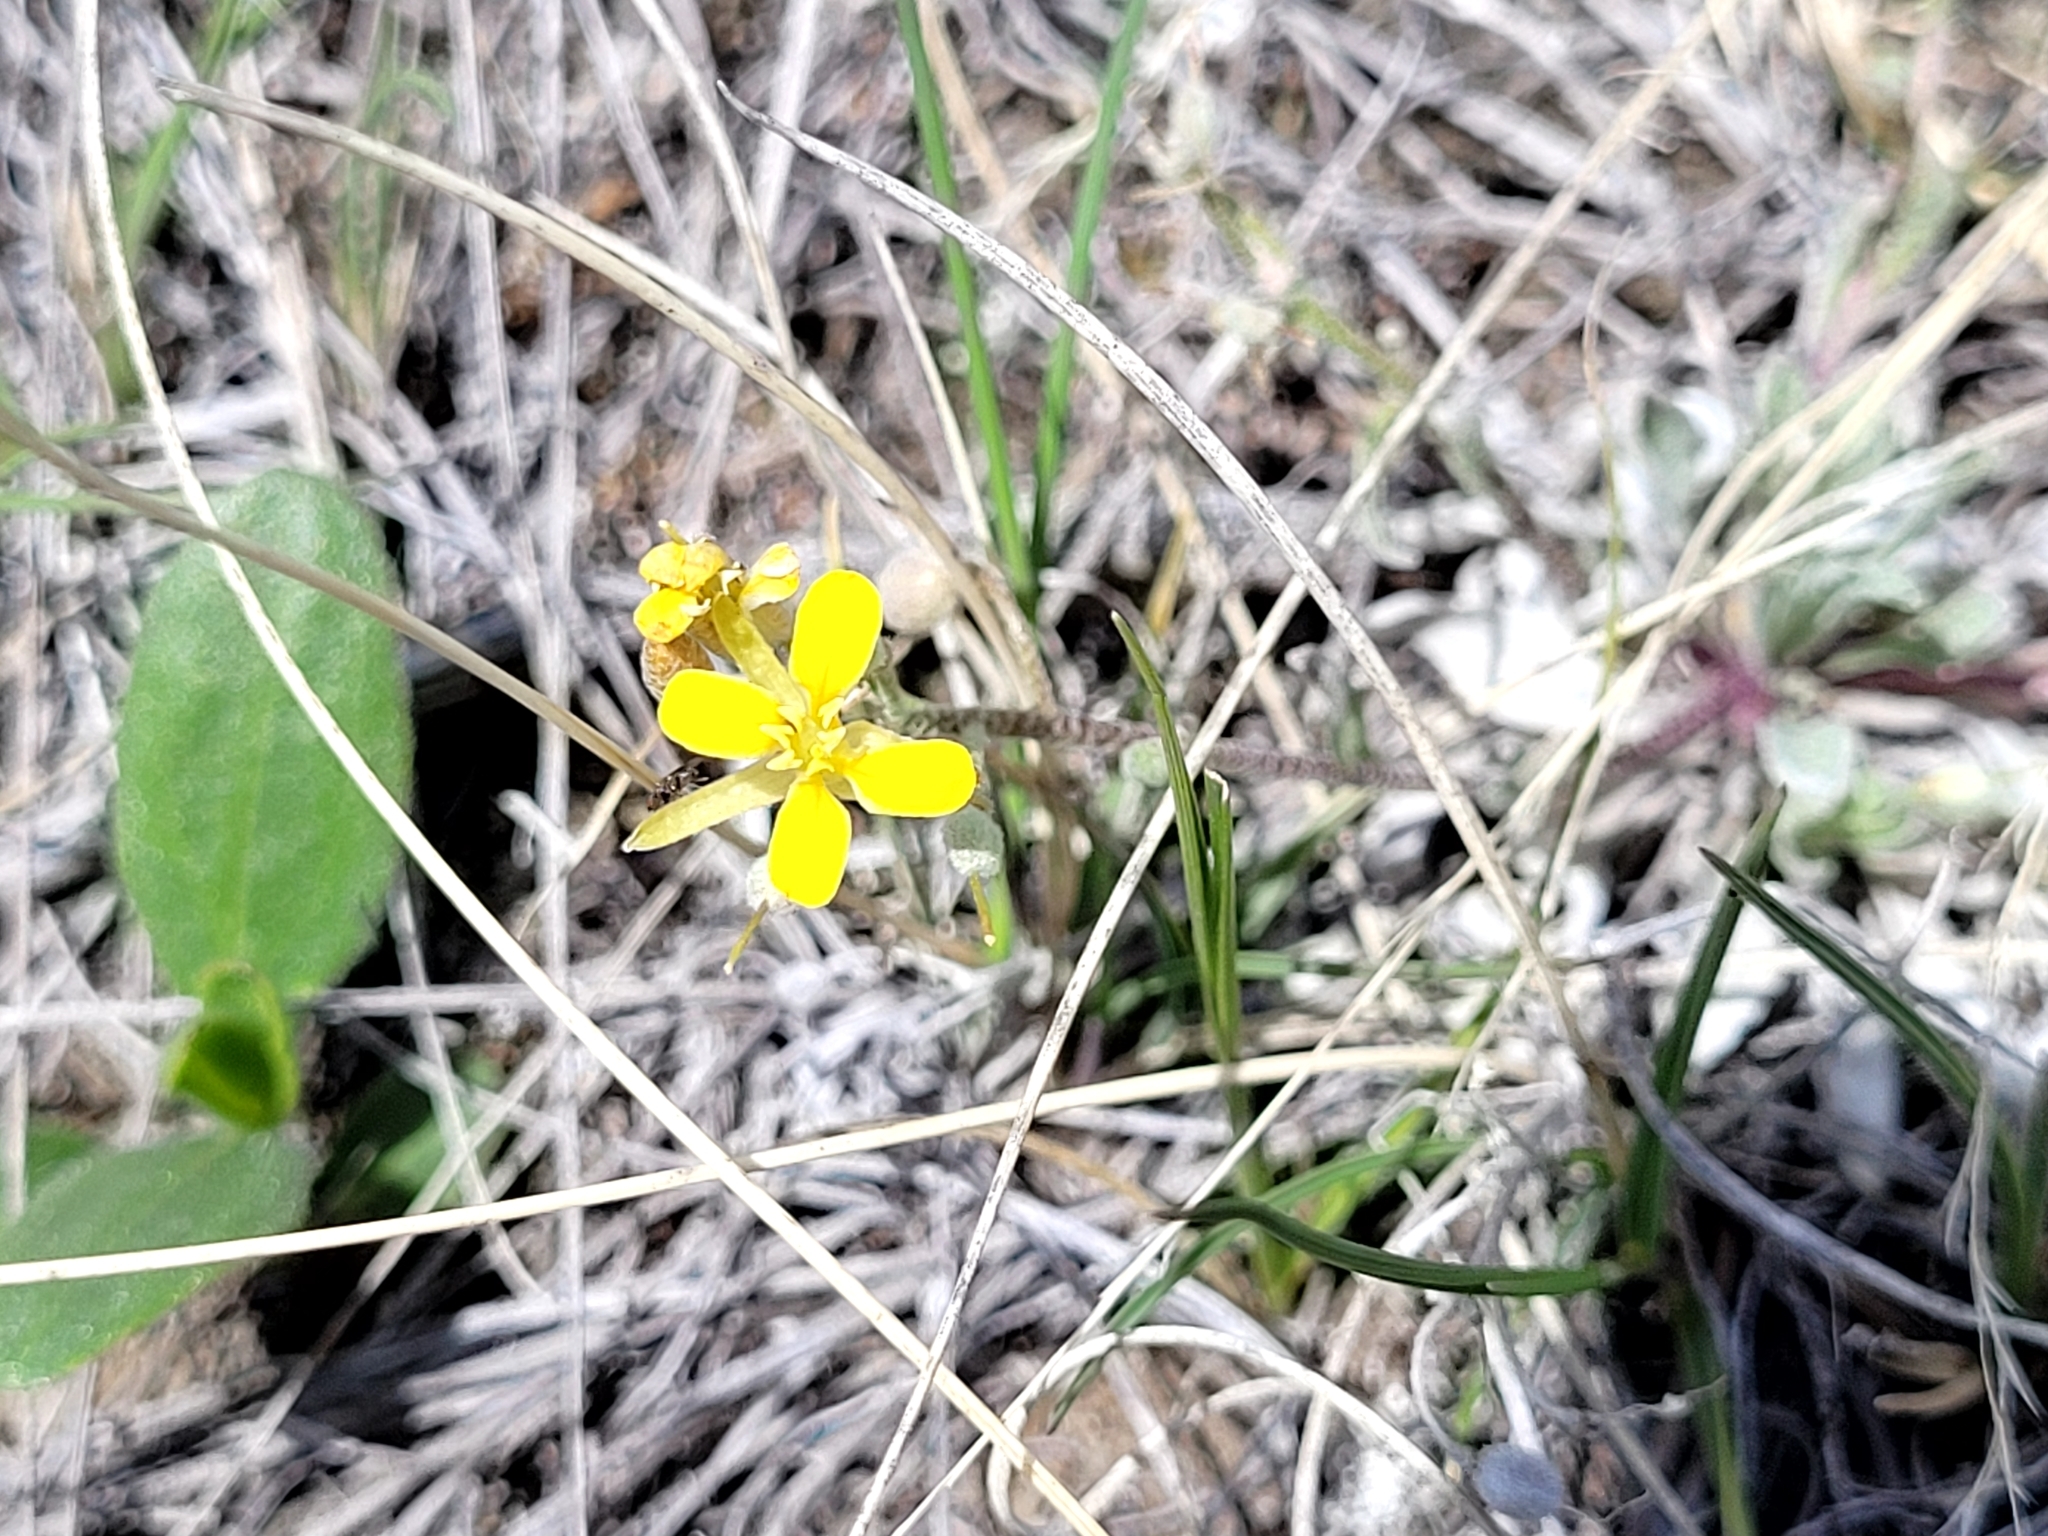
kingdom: Plantae
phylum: Tracheophyta
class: Magnoliopsida
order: Brassicales
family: Brassicaceae
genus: Physaria
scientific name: Physaria arenosa
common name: Great plains bladderpod
